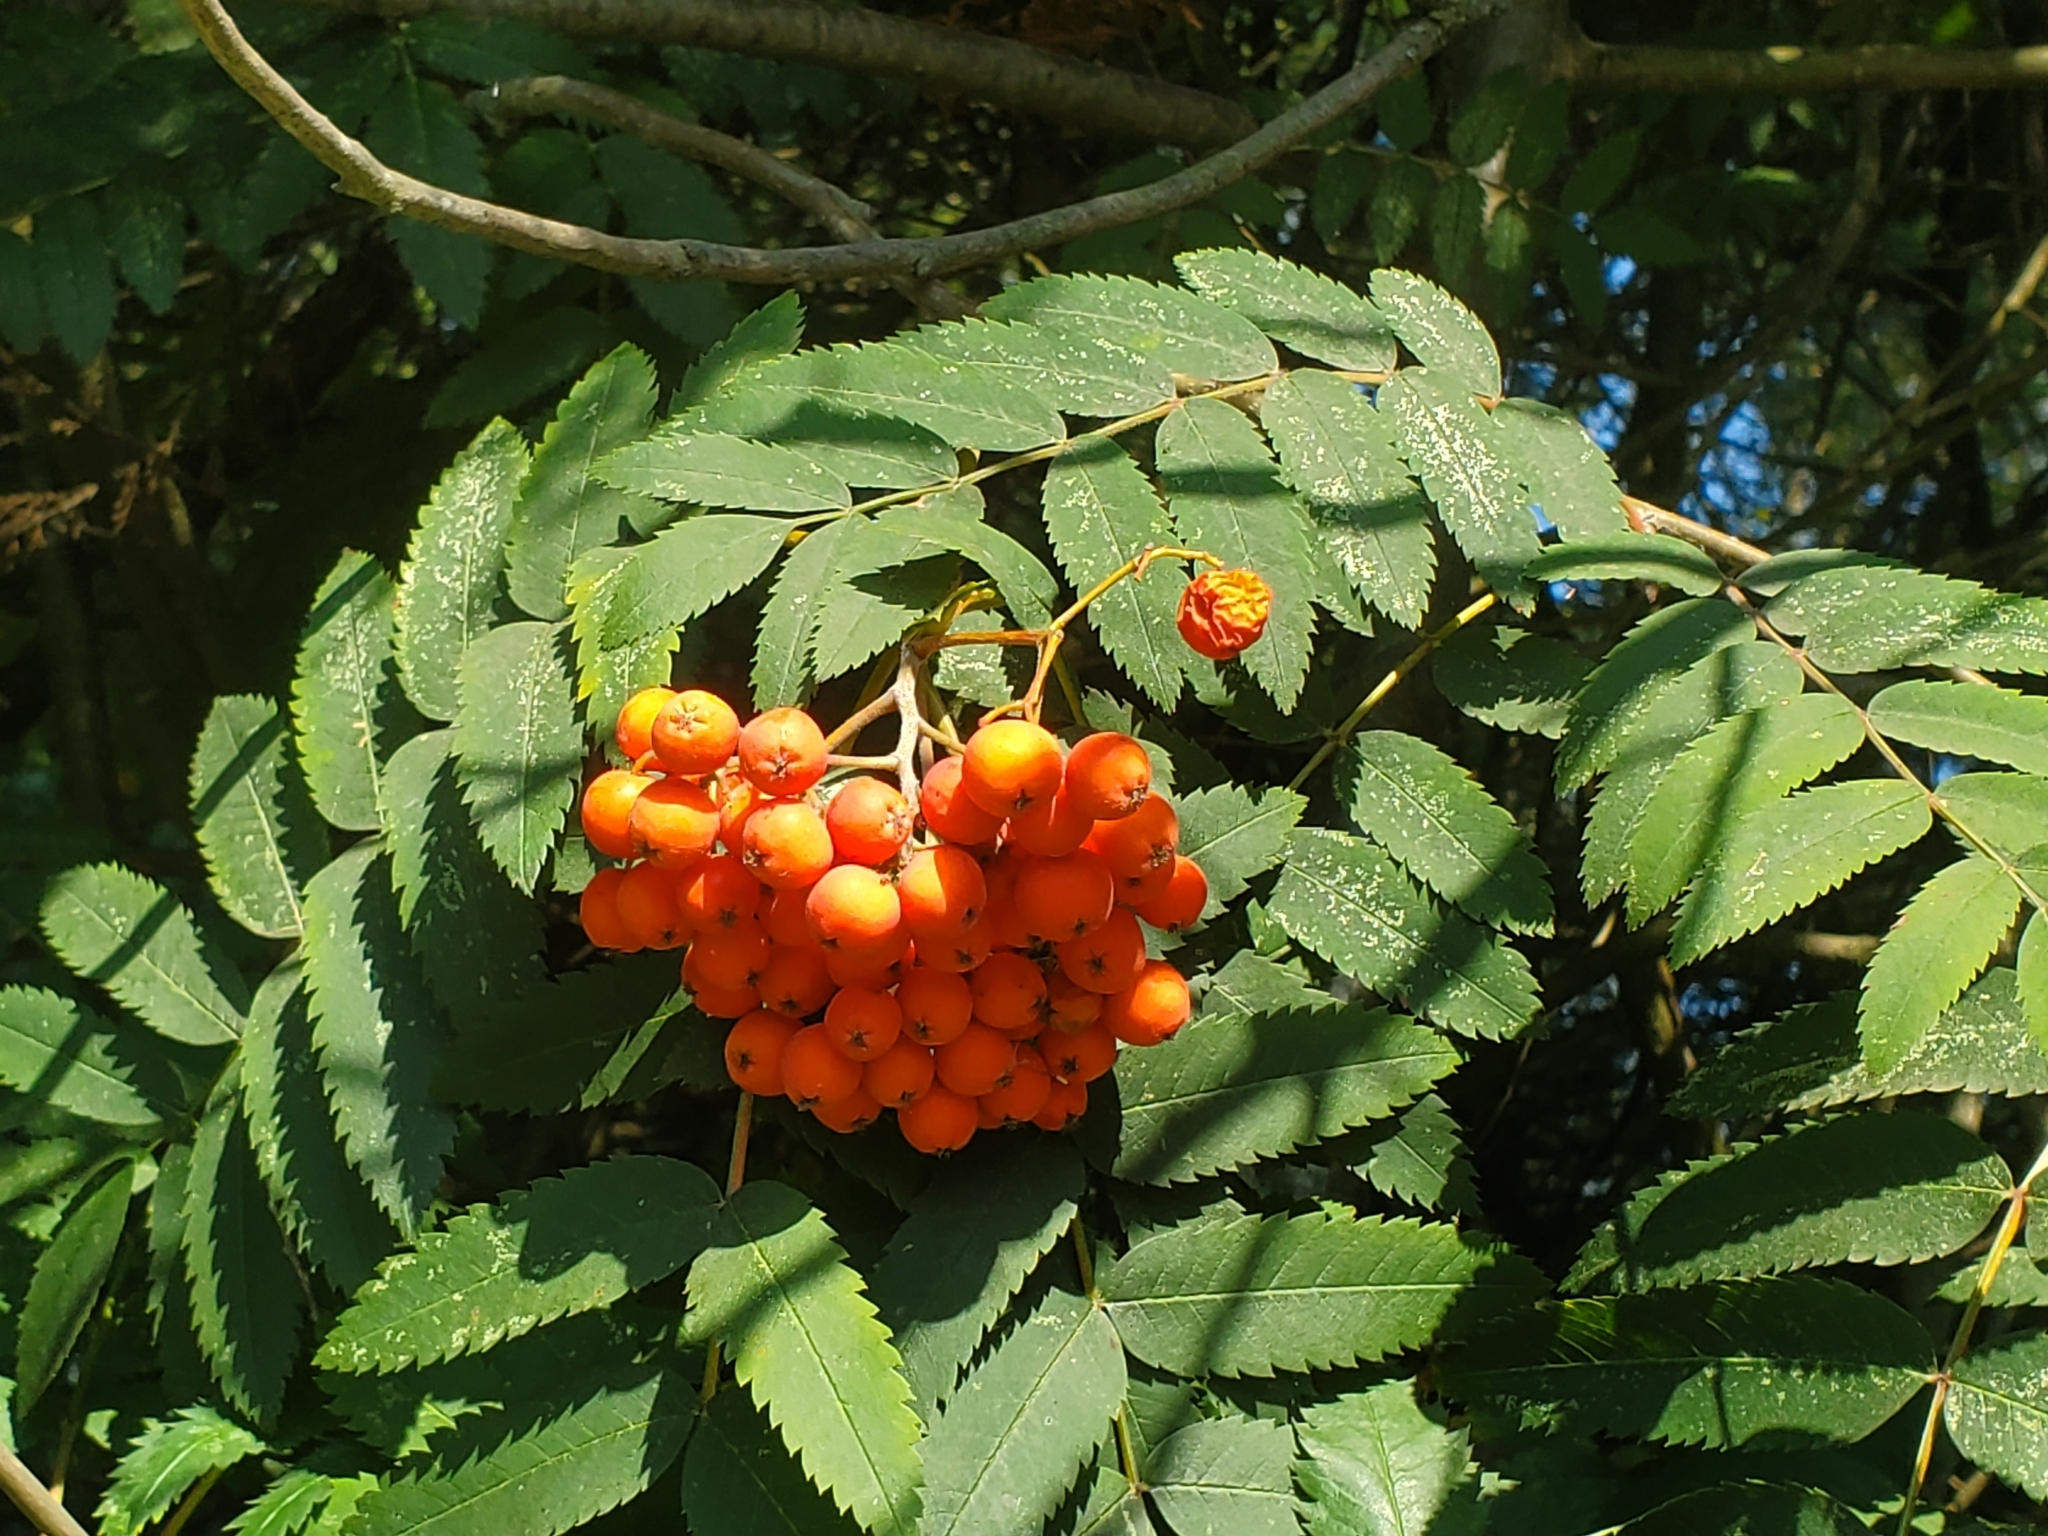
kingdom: Plantae
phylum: Tracheophyta
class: Magnoliopsida
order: Rosales
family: Rosaceae
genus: Sorbus
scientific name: Sorbus aucuparia
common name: Rowan
